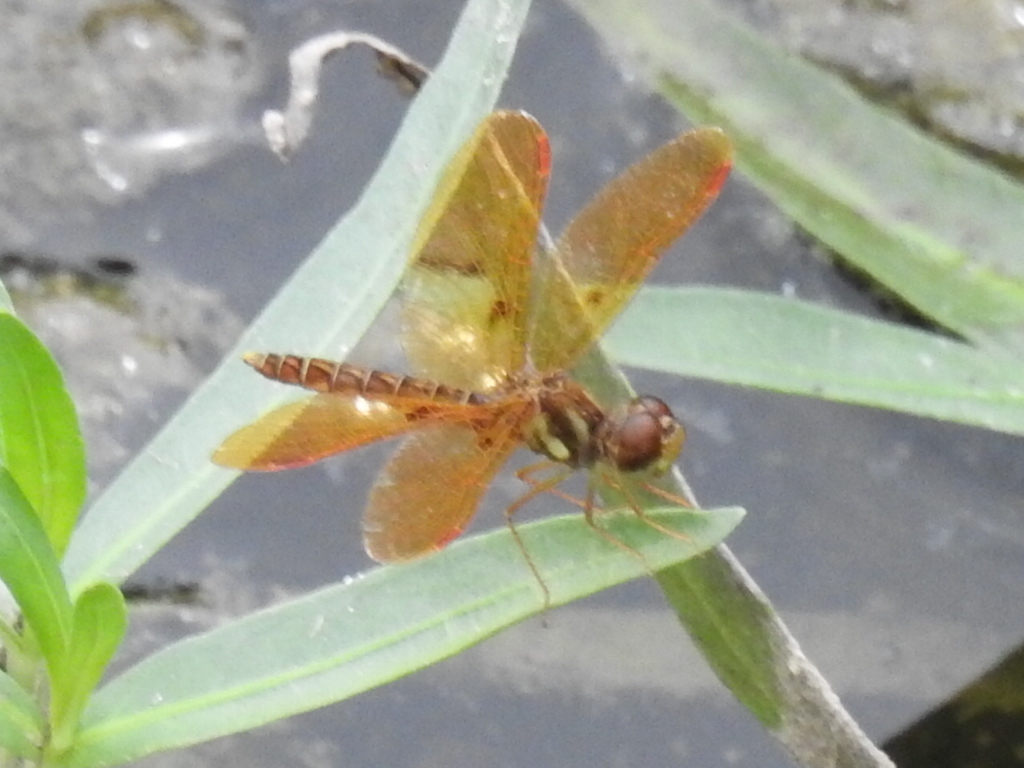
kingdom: Animalia
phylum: Arthropoda
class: Insecta
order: Odonata
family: Libellulidae
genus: Perithemis
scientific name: Perithemis tenera
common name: Eastern amberwing
